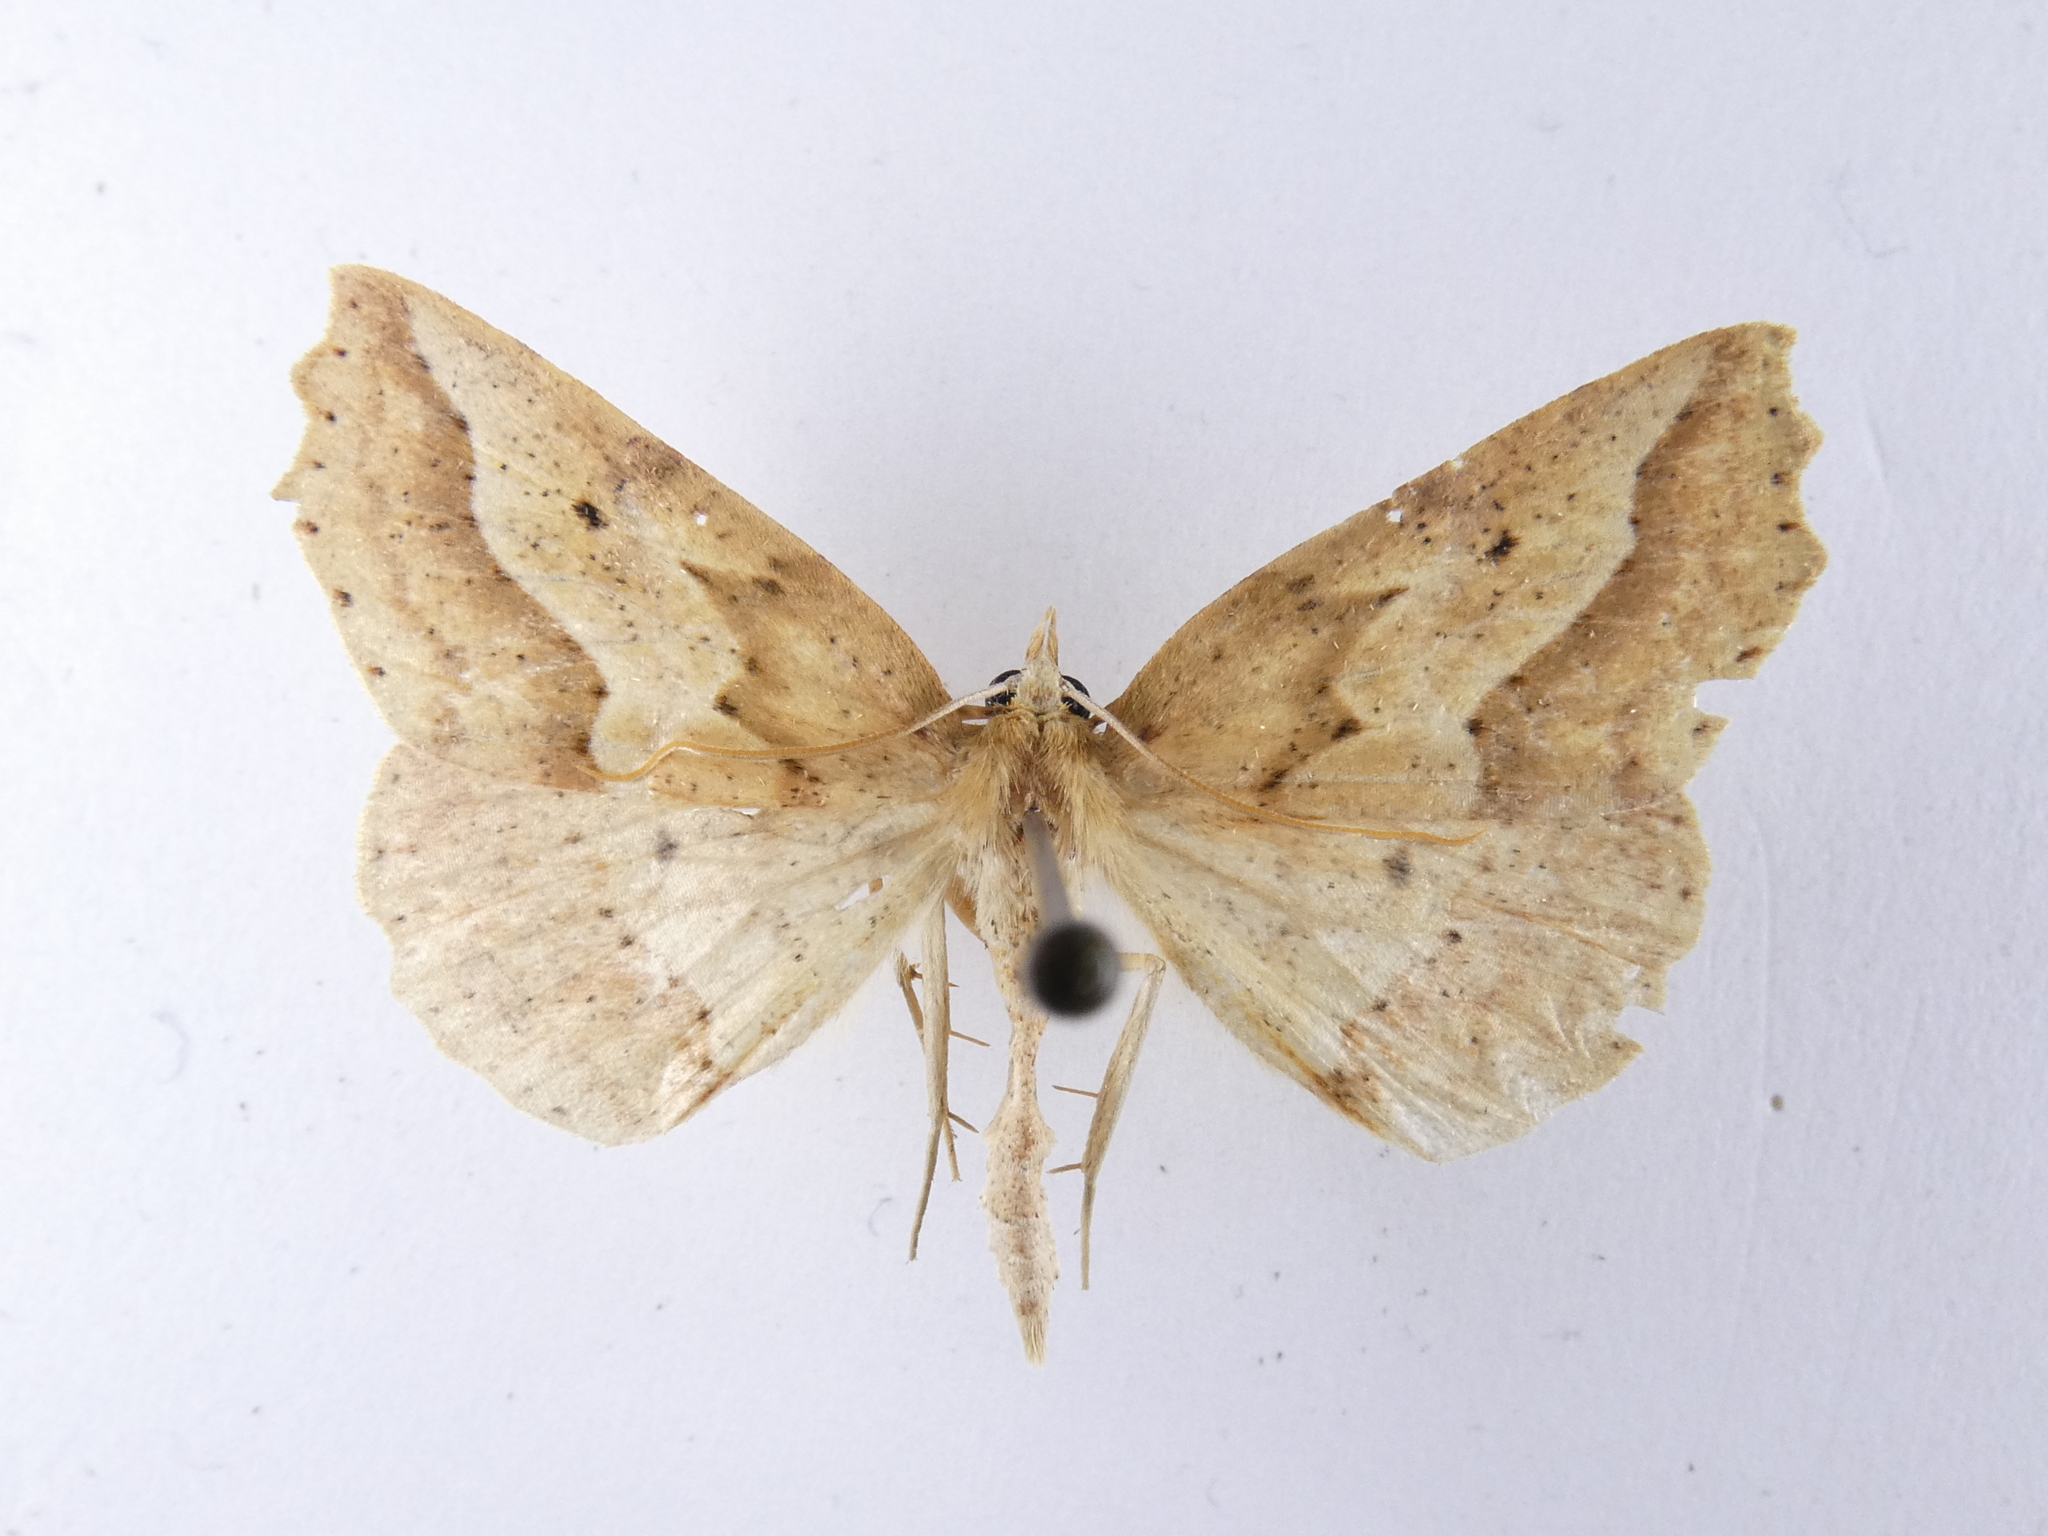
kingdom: Animalia
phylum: Arthropoda
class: Insecta
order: Lepidoptera
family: Geometridae
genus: Ischalis
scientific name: Ischalis variabilis
